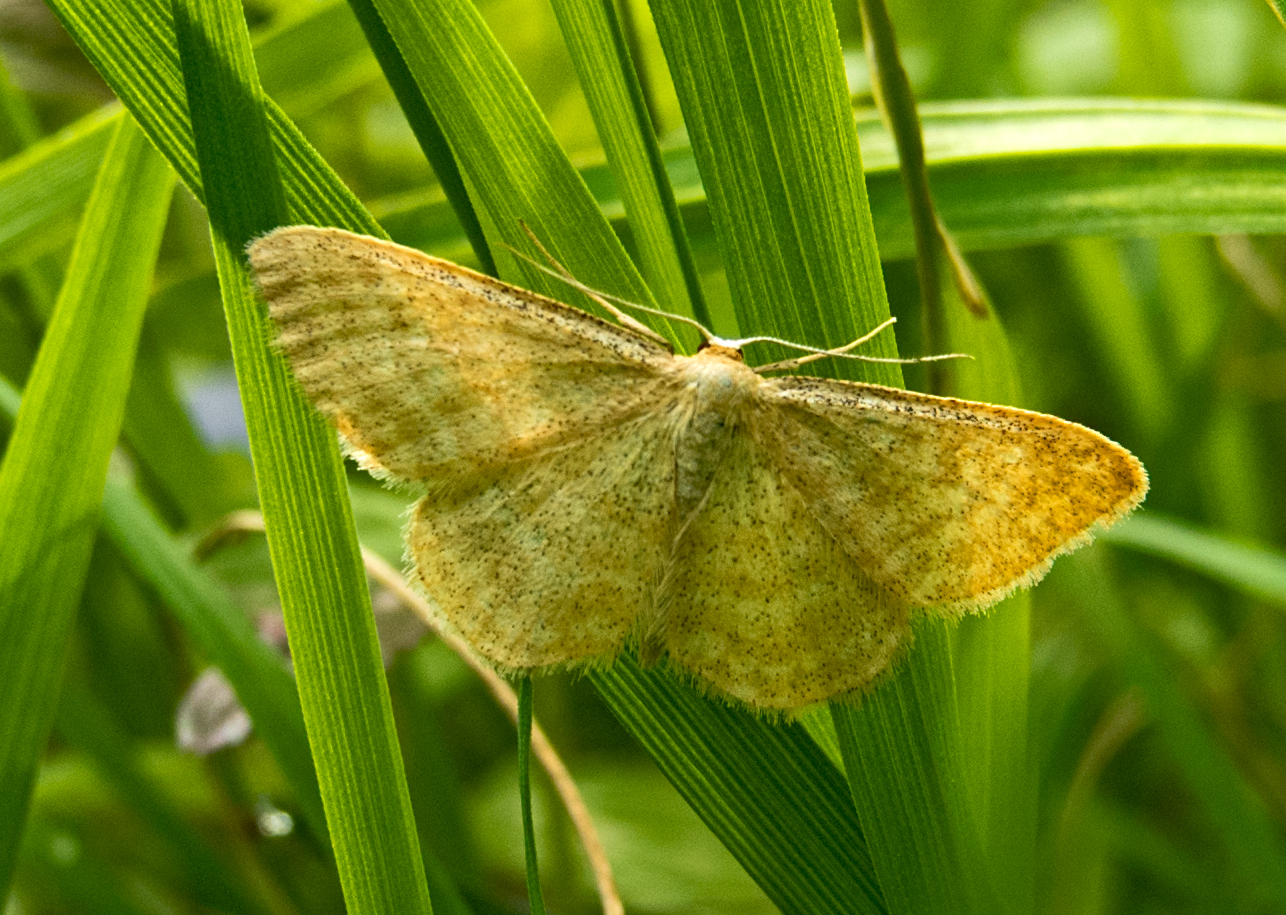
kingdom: Animalia
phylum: Arthropoda
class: Insecta
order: Lepidoptera
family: Geometridae
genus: Scopula
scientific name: Scopula immorata
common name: Lewes wave
